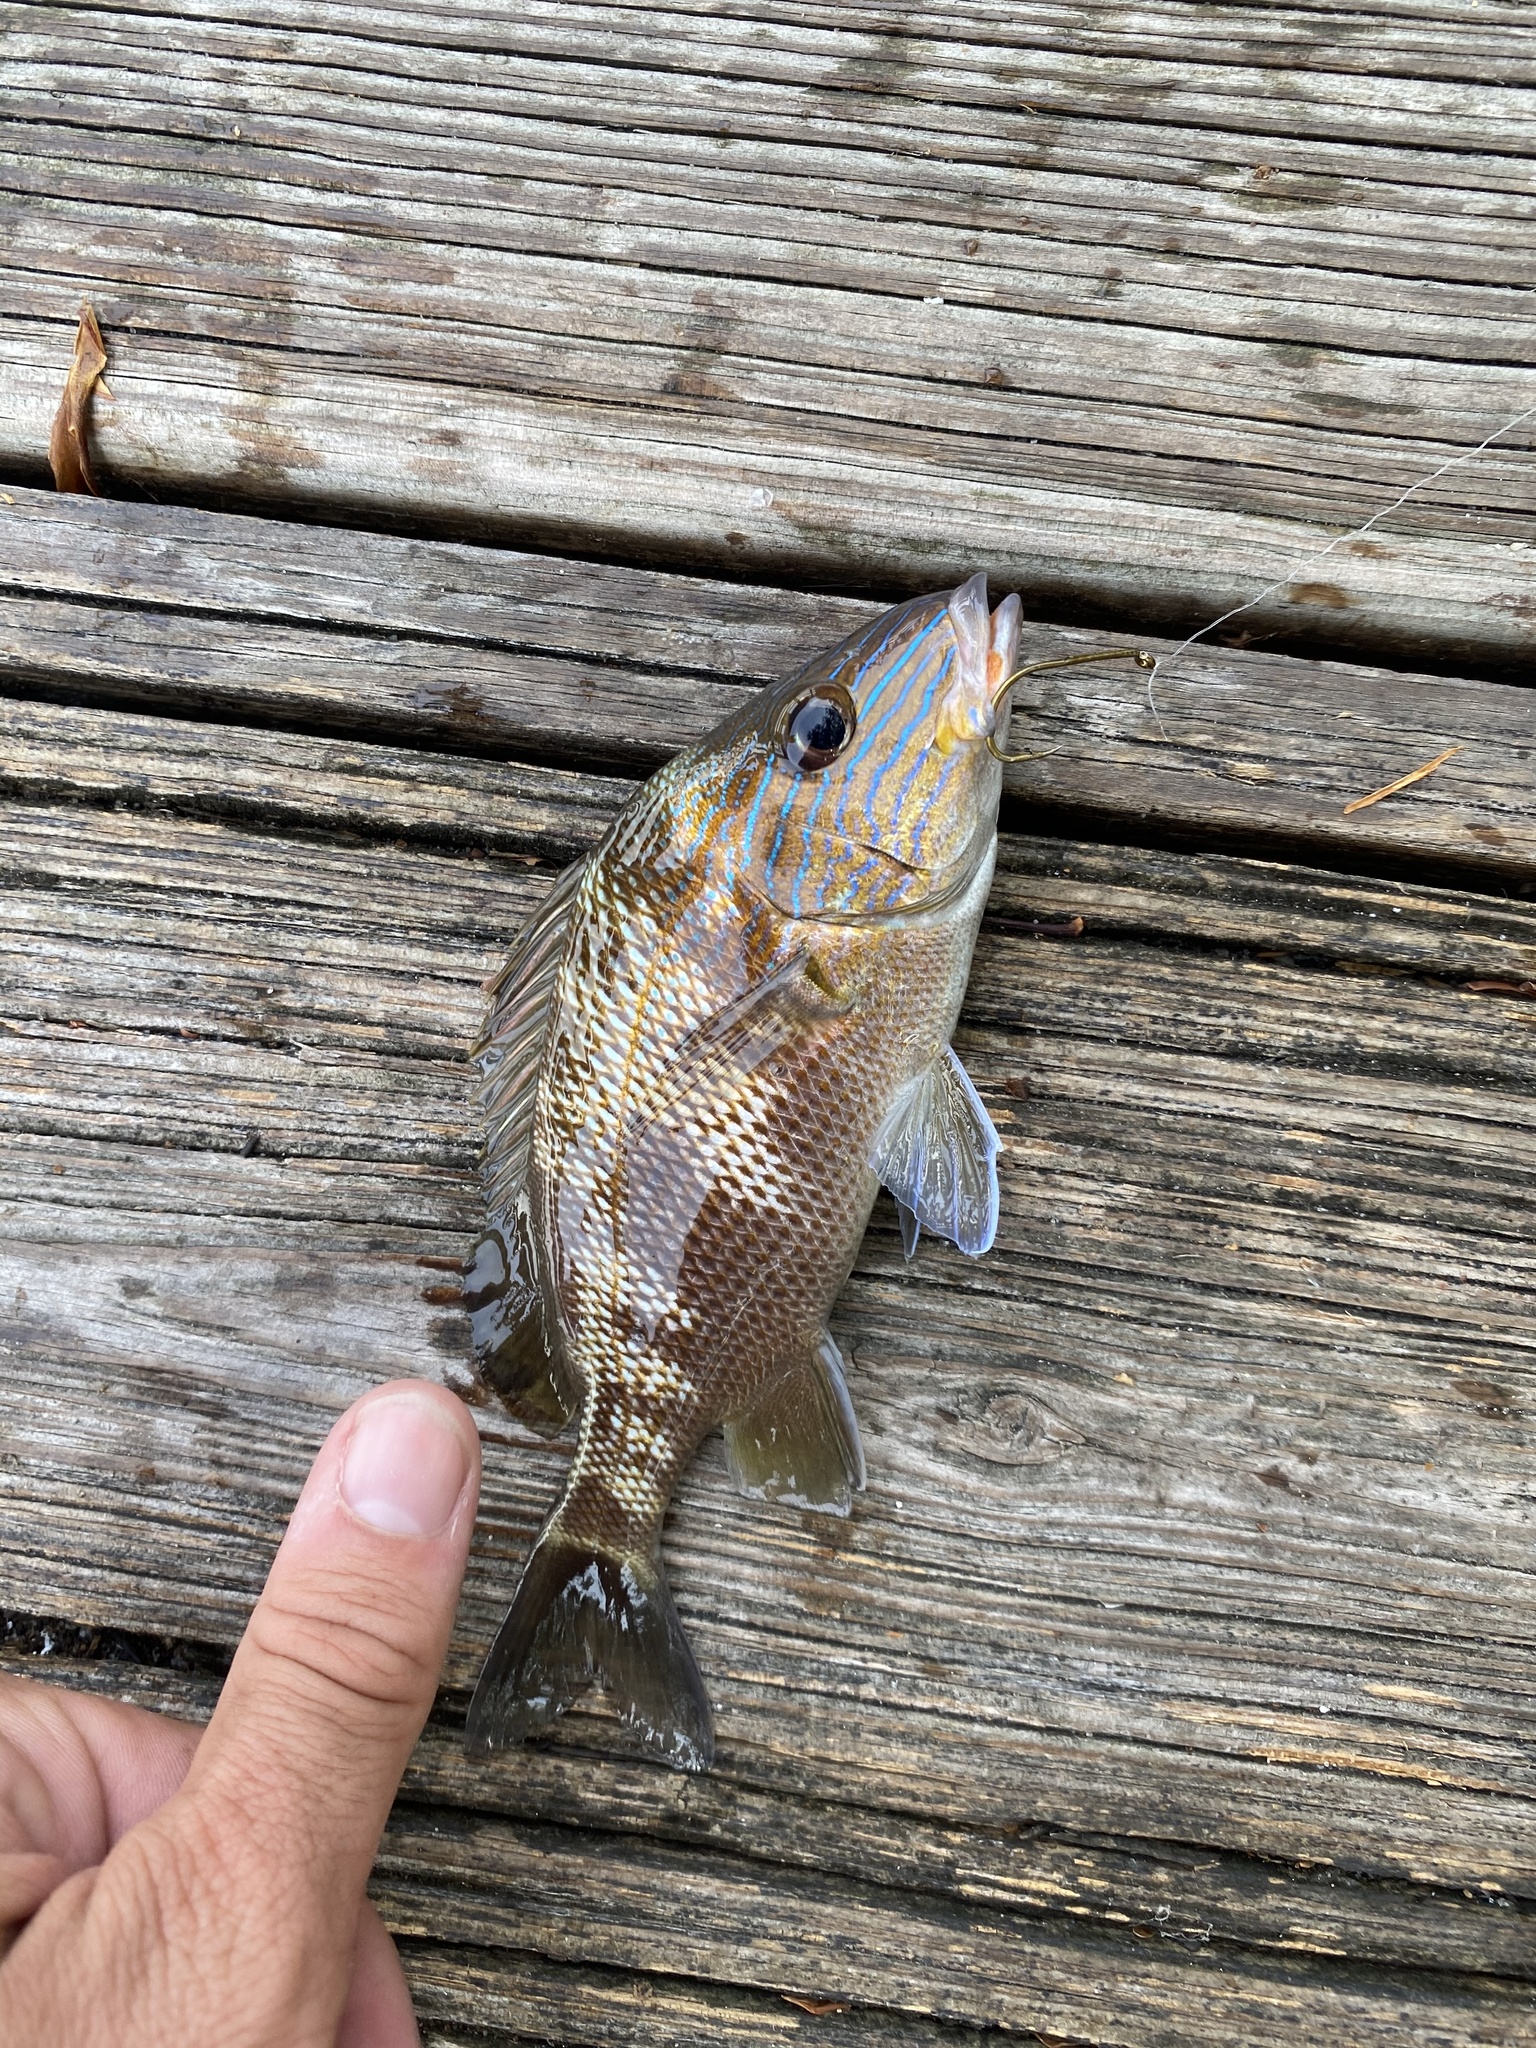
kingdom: Animalia
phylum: Chordata
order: Perciformes
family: Haemulidae
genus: Haemulon
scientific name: Haemulon plumierii
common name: White grunt
